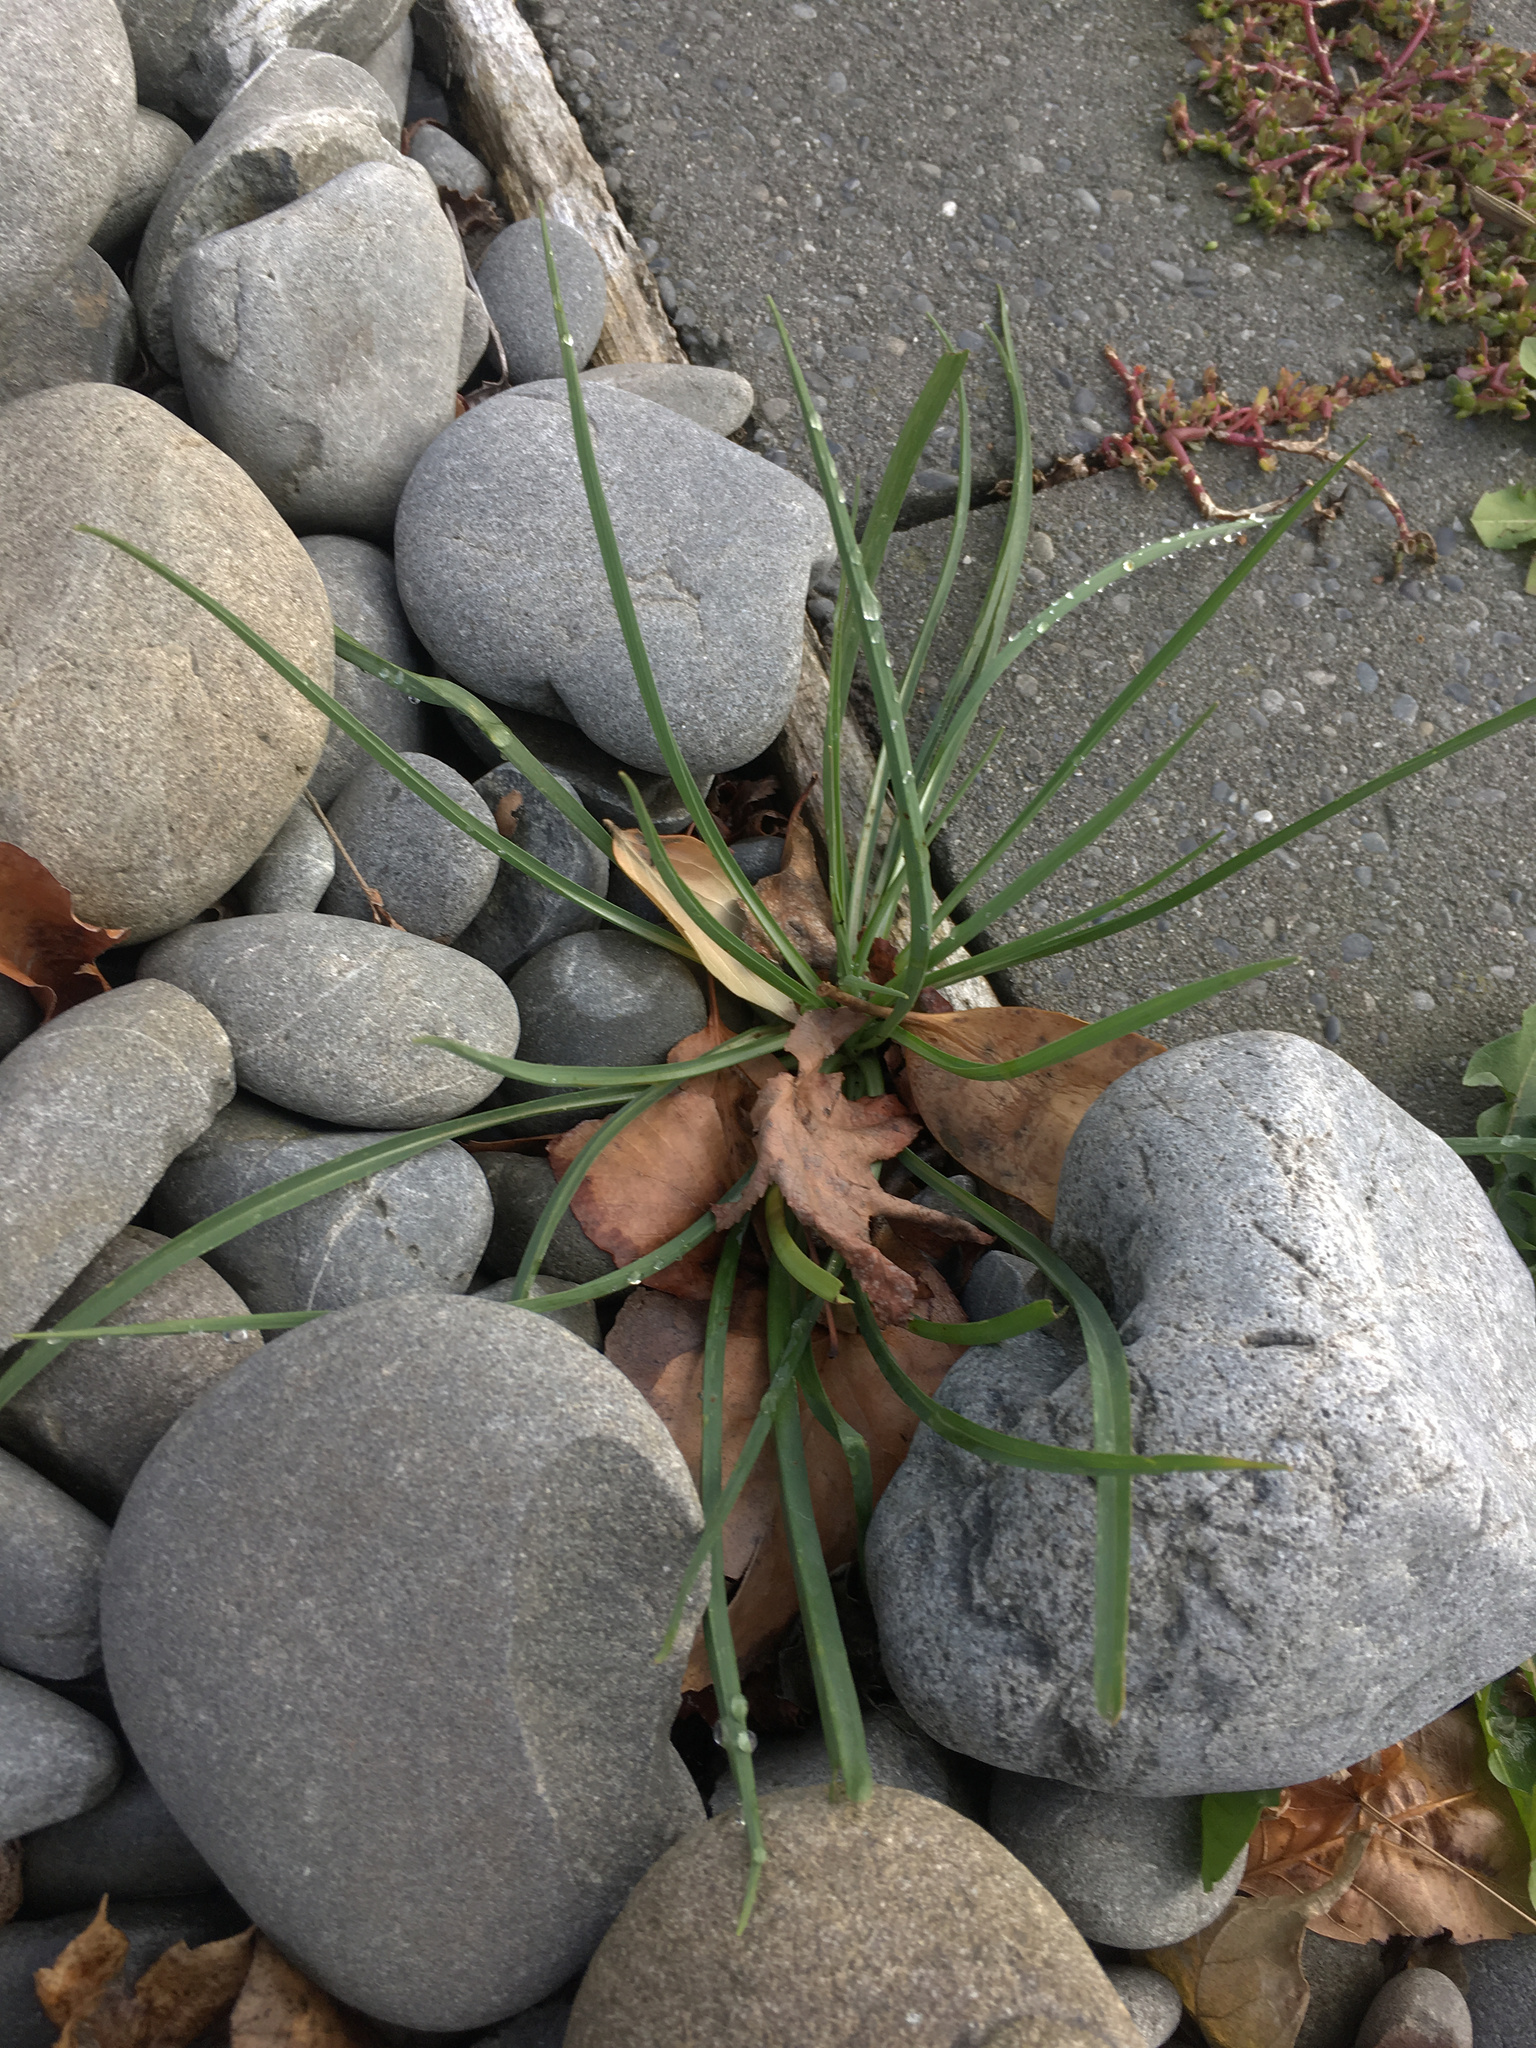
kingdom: Plantae
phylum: Tracheophyta
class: Magnoliopsida
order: Asterales
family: Asteraceae
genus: Tragopogon
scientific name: Tragopogon porrifolius
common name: Salsify
